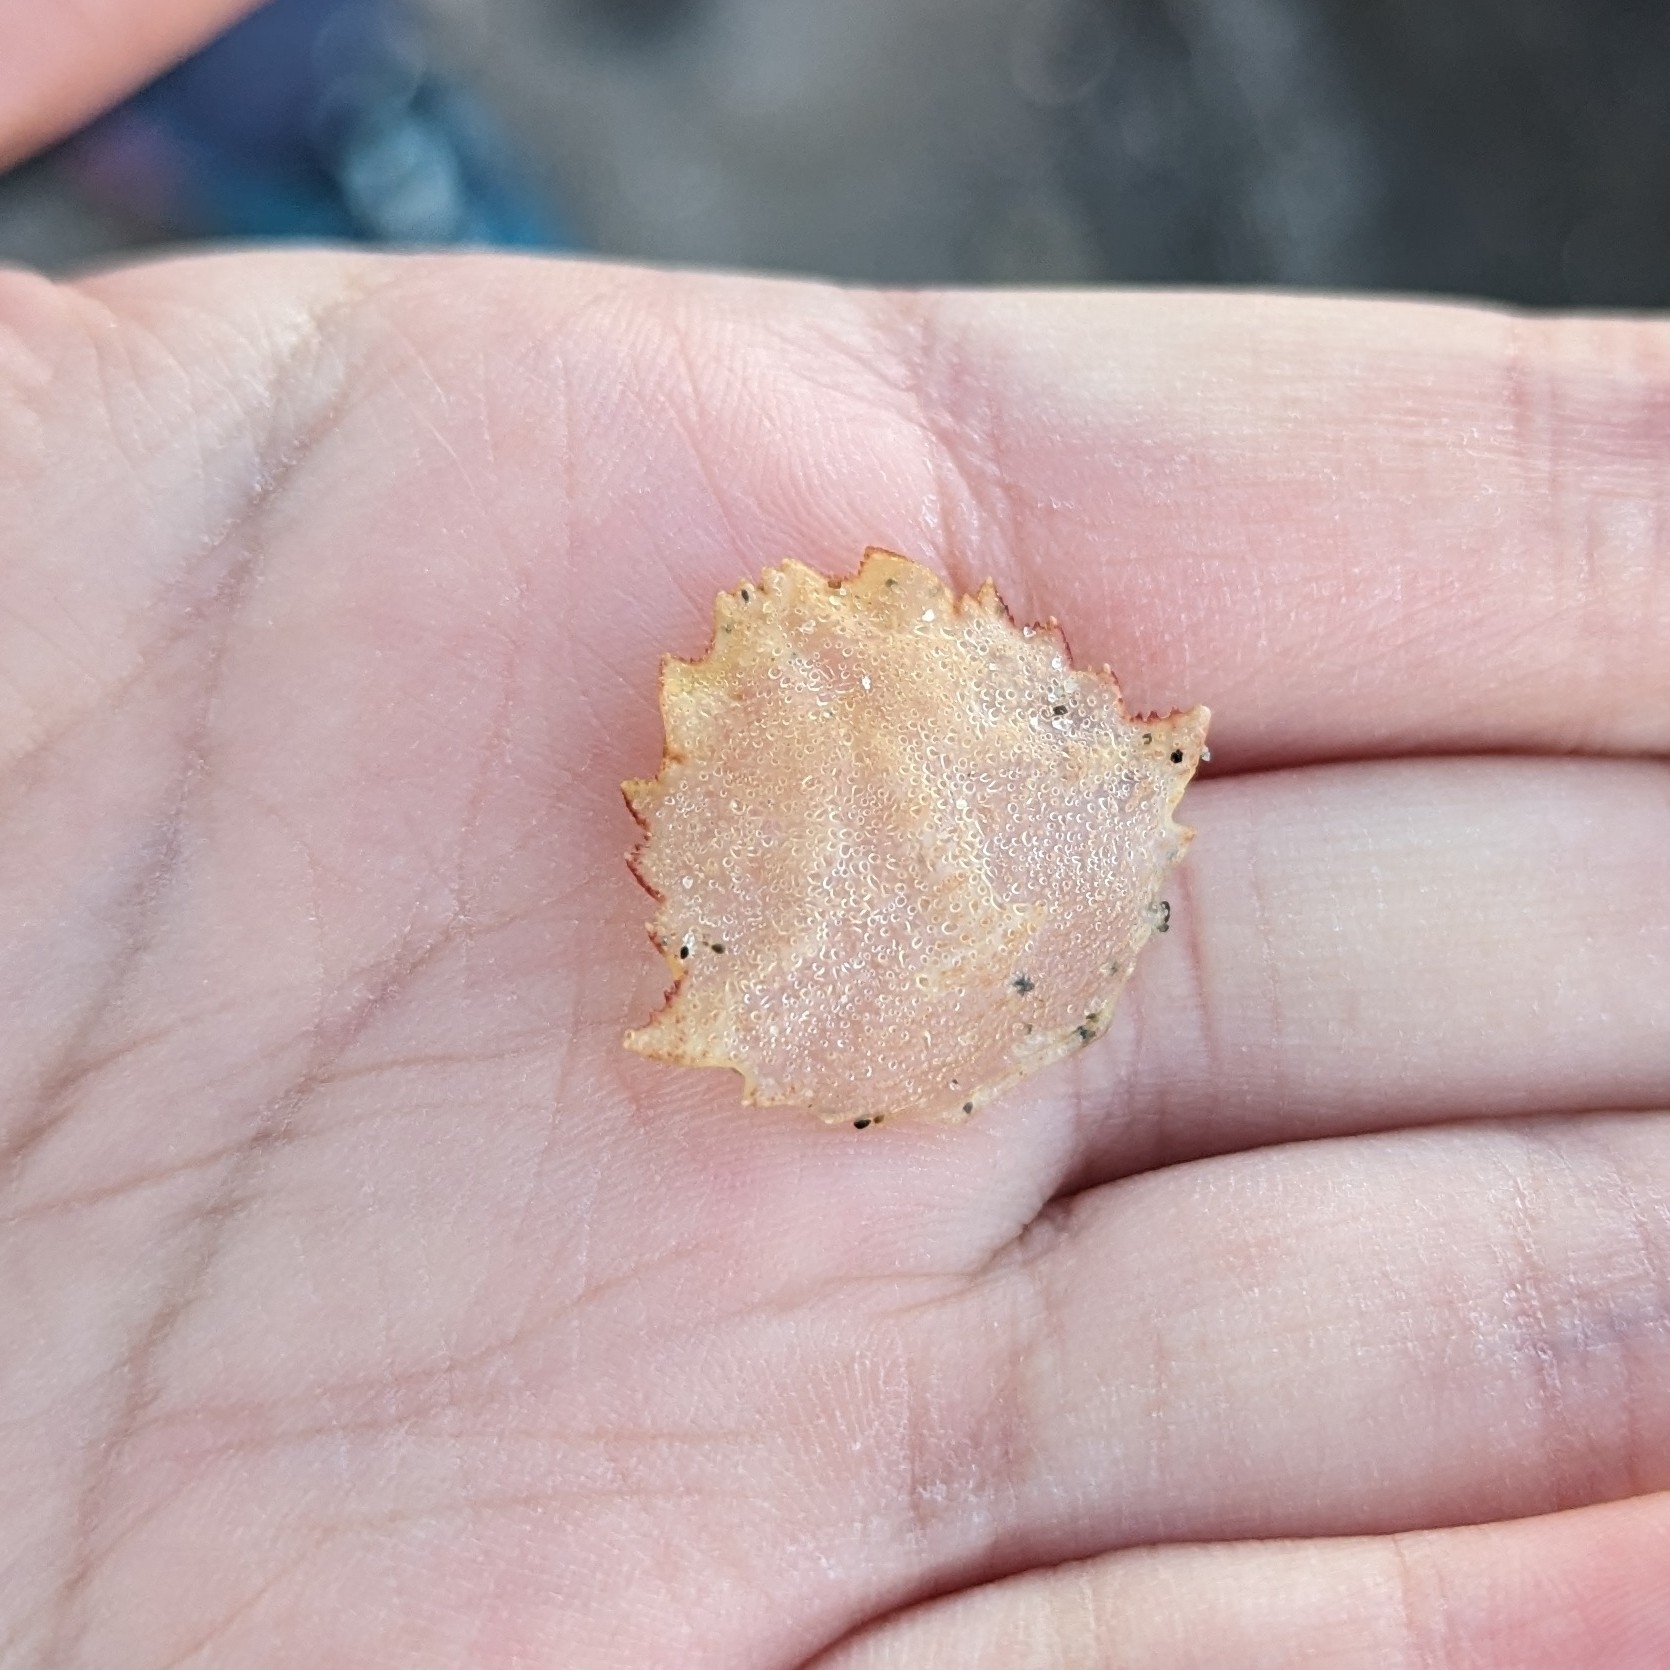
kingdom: Animalia
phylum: Arthropoda
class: Malacostraca
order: Decapoda
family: Cheiragonidae
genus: Telmessus
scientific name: Telmessus cheiragonus
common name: Helmet crab
